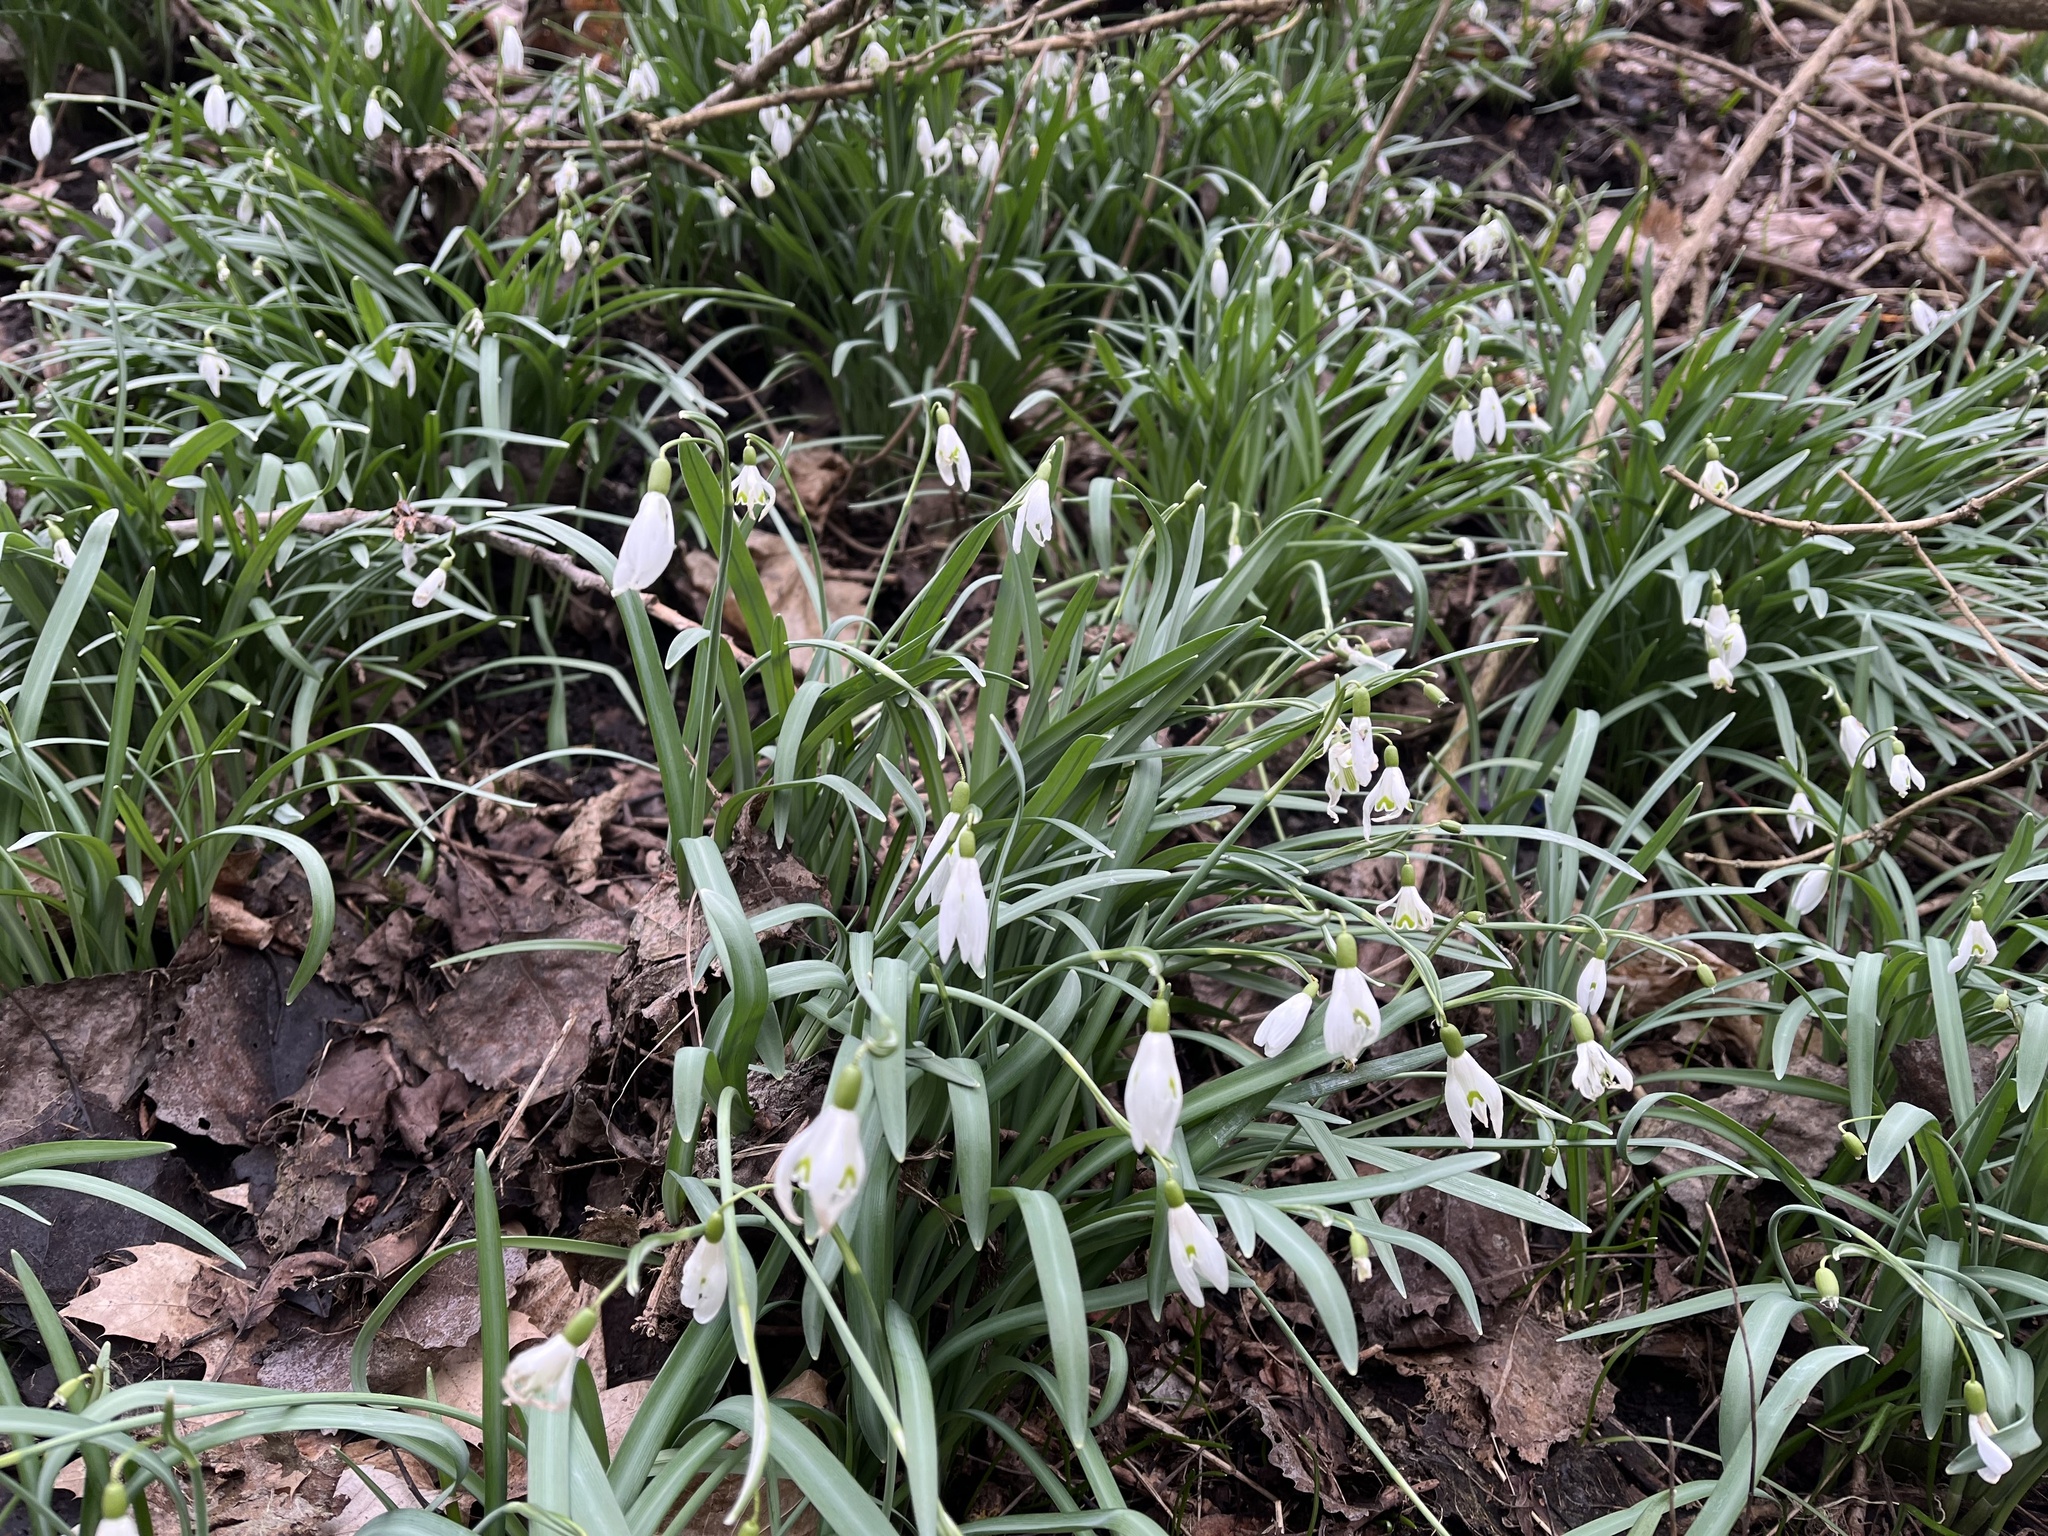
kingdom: Plantae
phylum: Tracheophyta
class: Liliopsida
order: Asparagales
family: Amaryllidaceae
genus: Galanthus
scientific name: Galanthus nivalis
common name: Snowdrop
